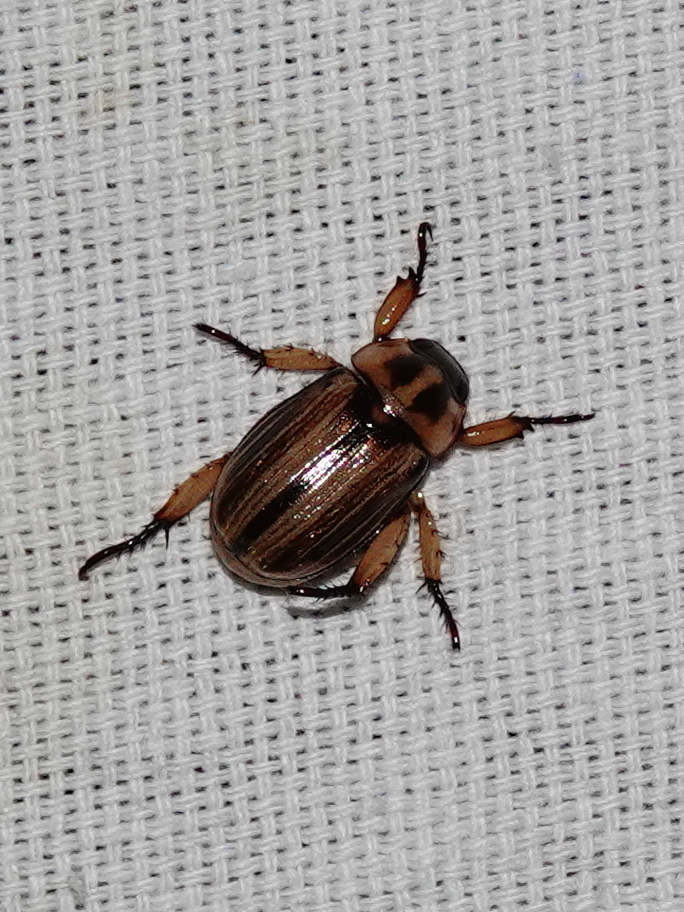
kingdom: Animalia
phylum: Arthropoda
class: Insecta
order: Coleoptera
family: Scarabaeidae
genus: Anomala
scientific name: Anomala variivestis
